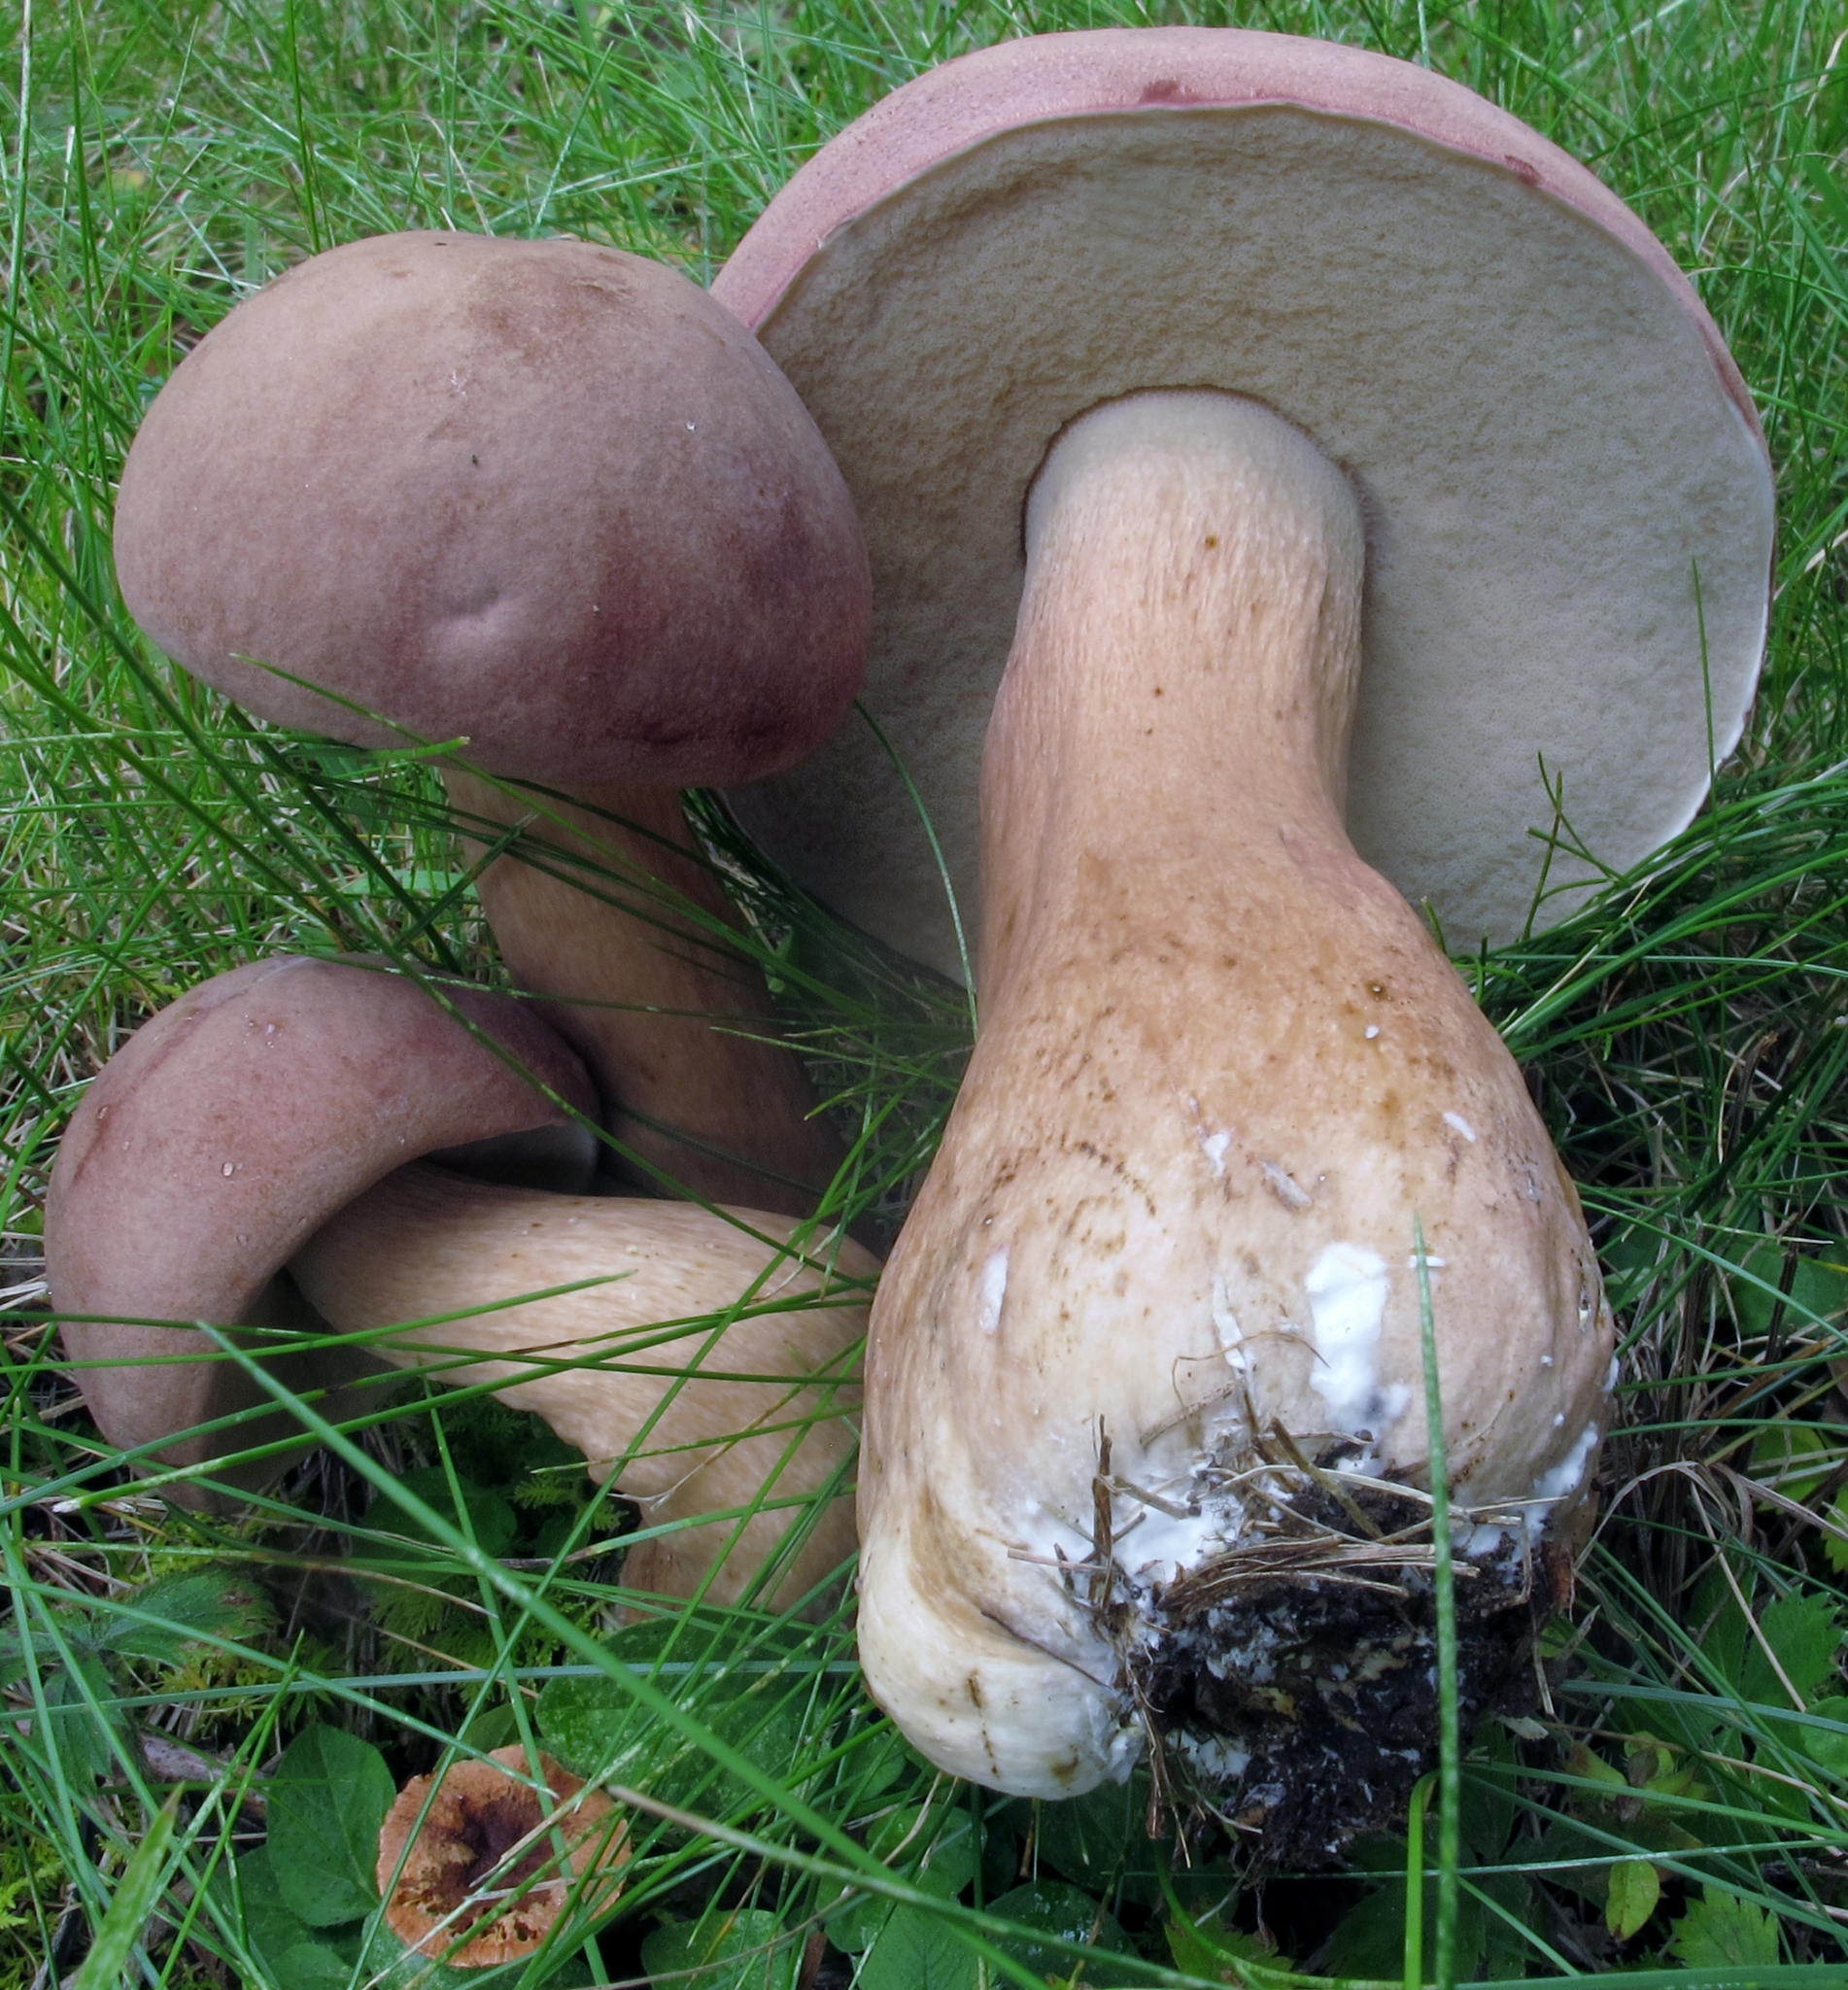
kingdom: Fungi
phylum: Basidiomycota
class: Agaricomycetes
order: Boletales
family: Boletaceae
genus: Tylopilus
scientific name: Tylopilus rubrobrunneus
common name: Reddish brown bitter bolete
